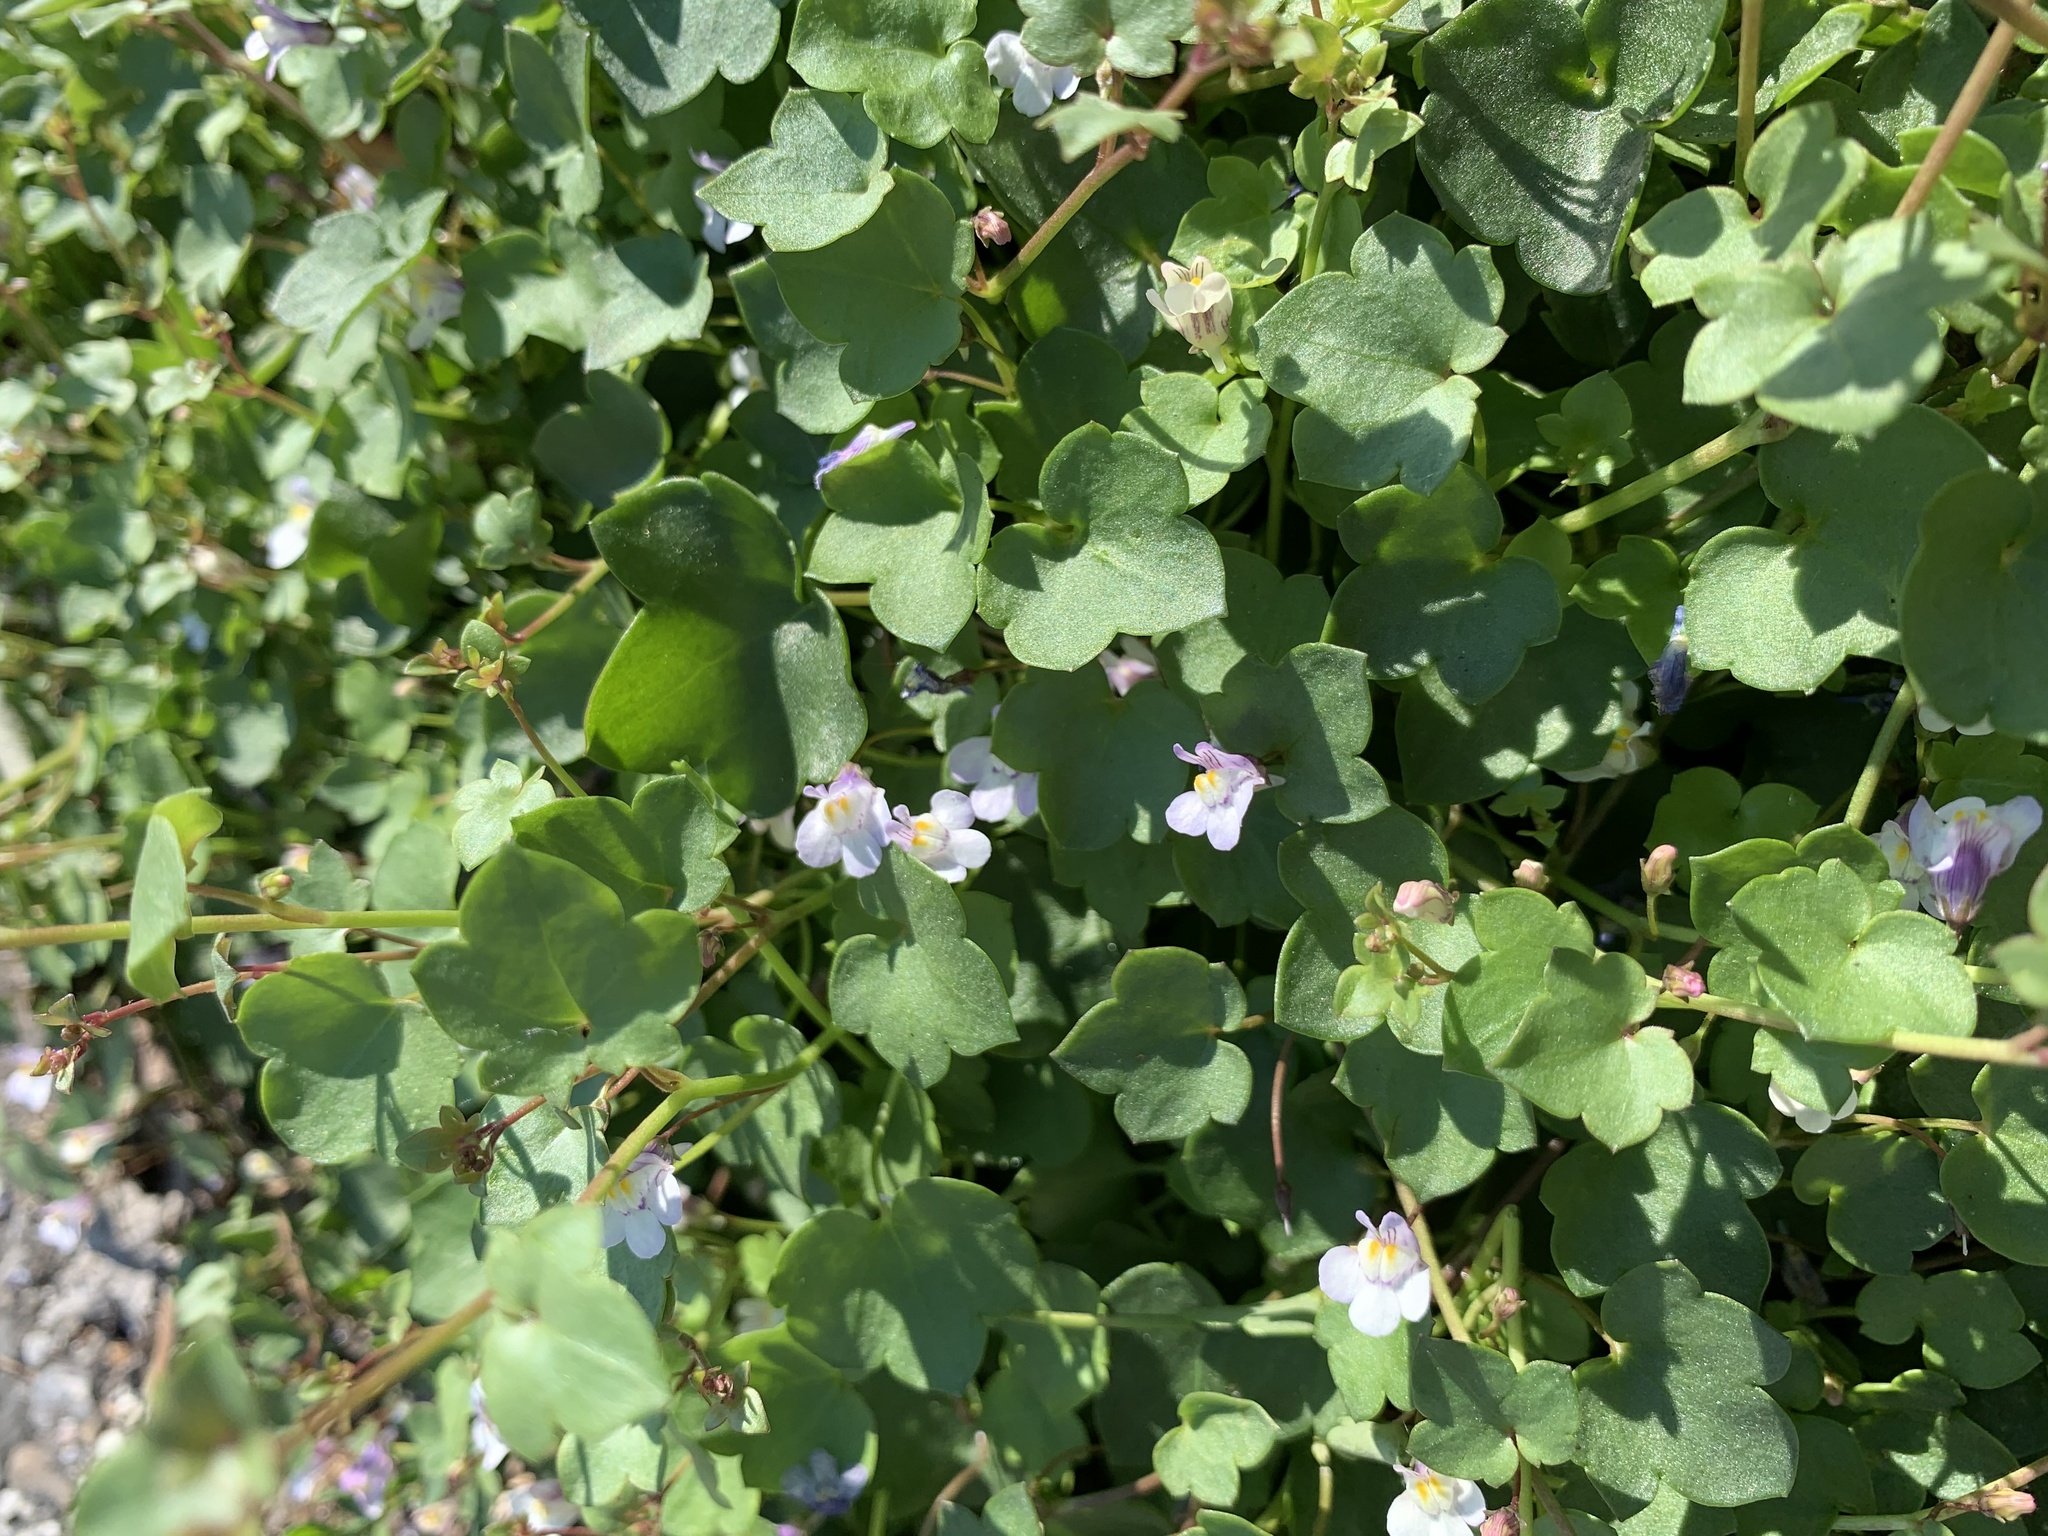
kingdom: Plantae
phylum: Tracheophyta
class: Magnoliopsida
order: Lamiales
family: Plantaginaceae
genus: Cymbalaria
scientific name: Cymbalaria muralis
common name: Ivy-leaved toadflax
